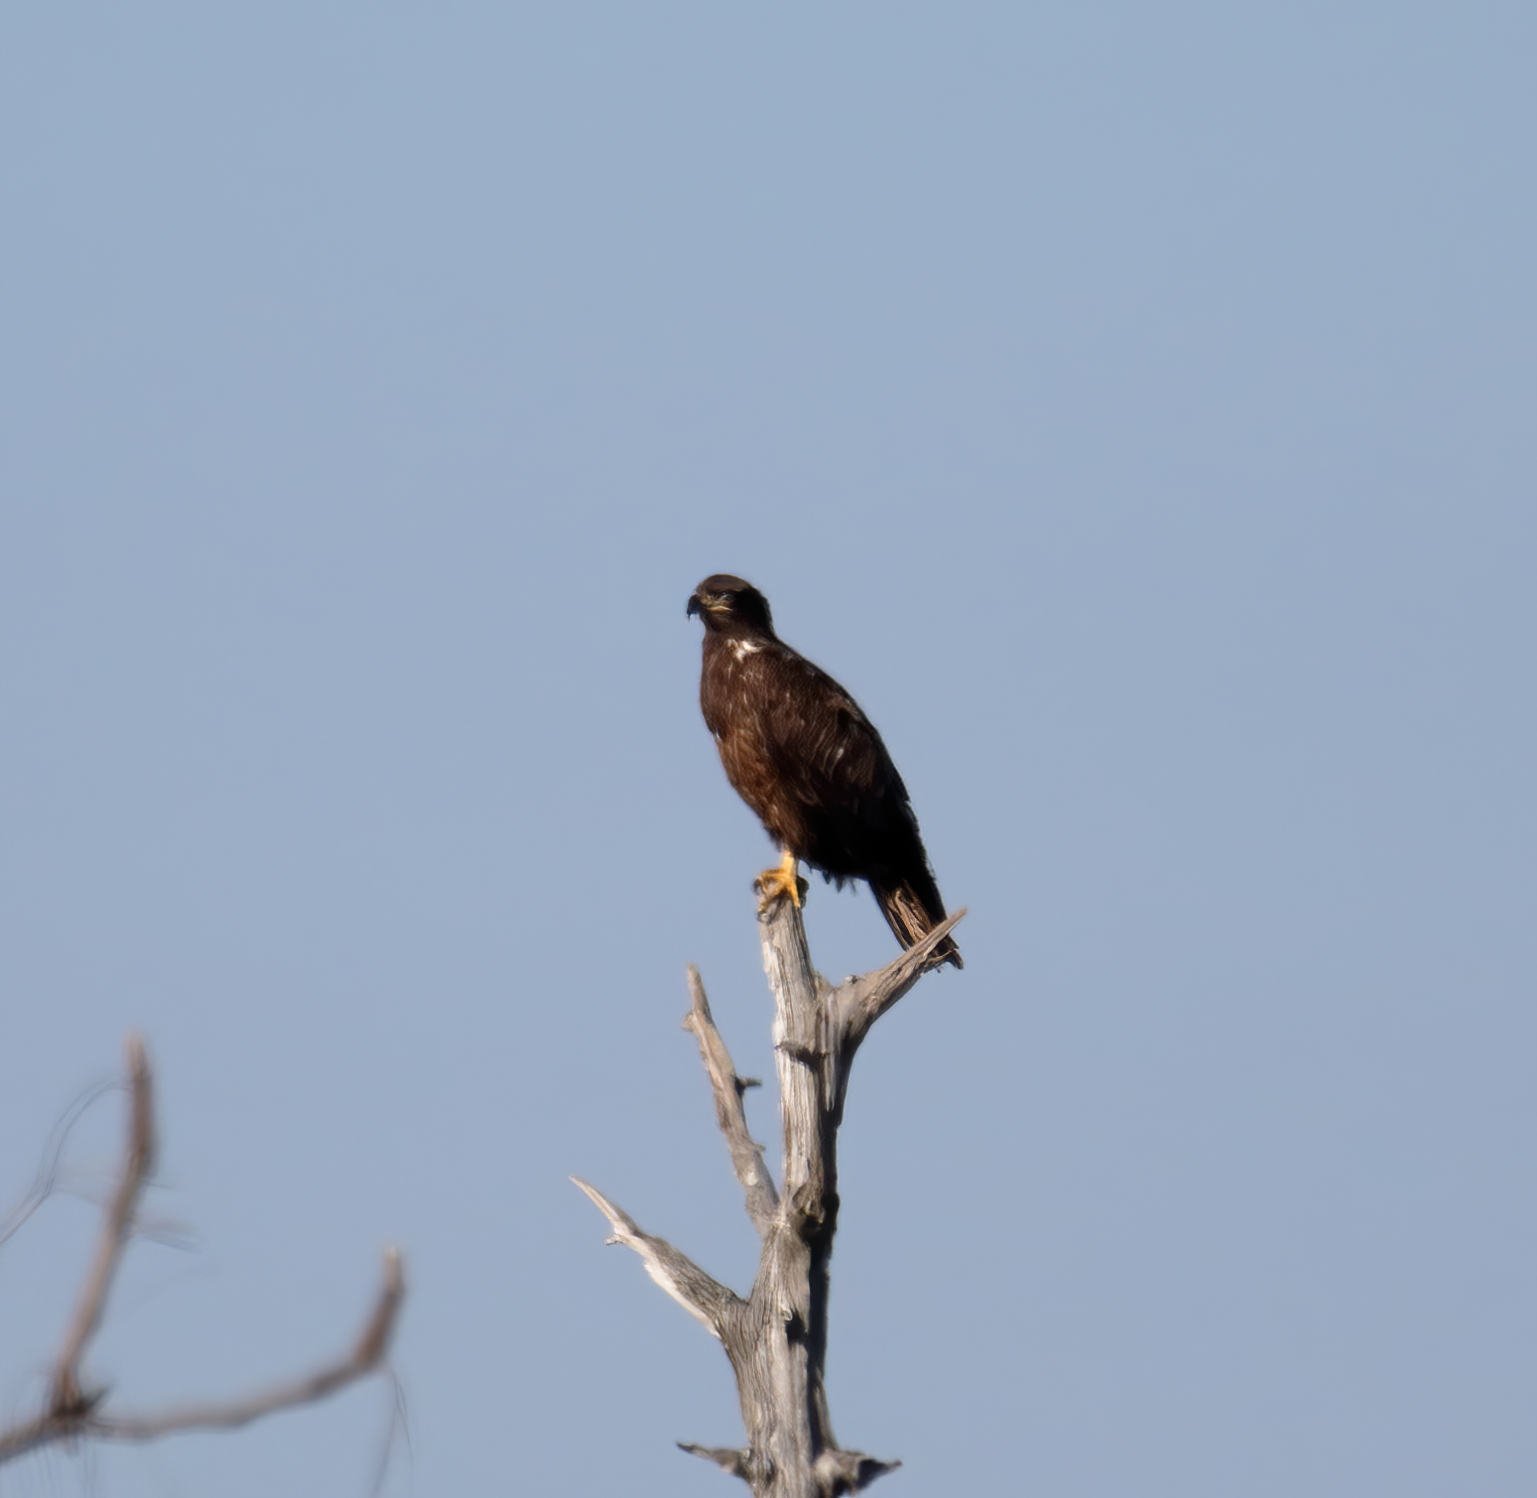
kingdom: Animalia
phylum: Chordata
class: Aves
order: Accipitriformes
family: Accipitridae
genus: Haliaeetus
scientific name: Haliaeetus leucocephalus
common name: Bald eagle
